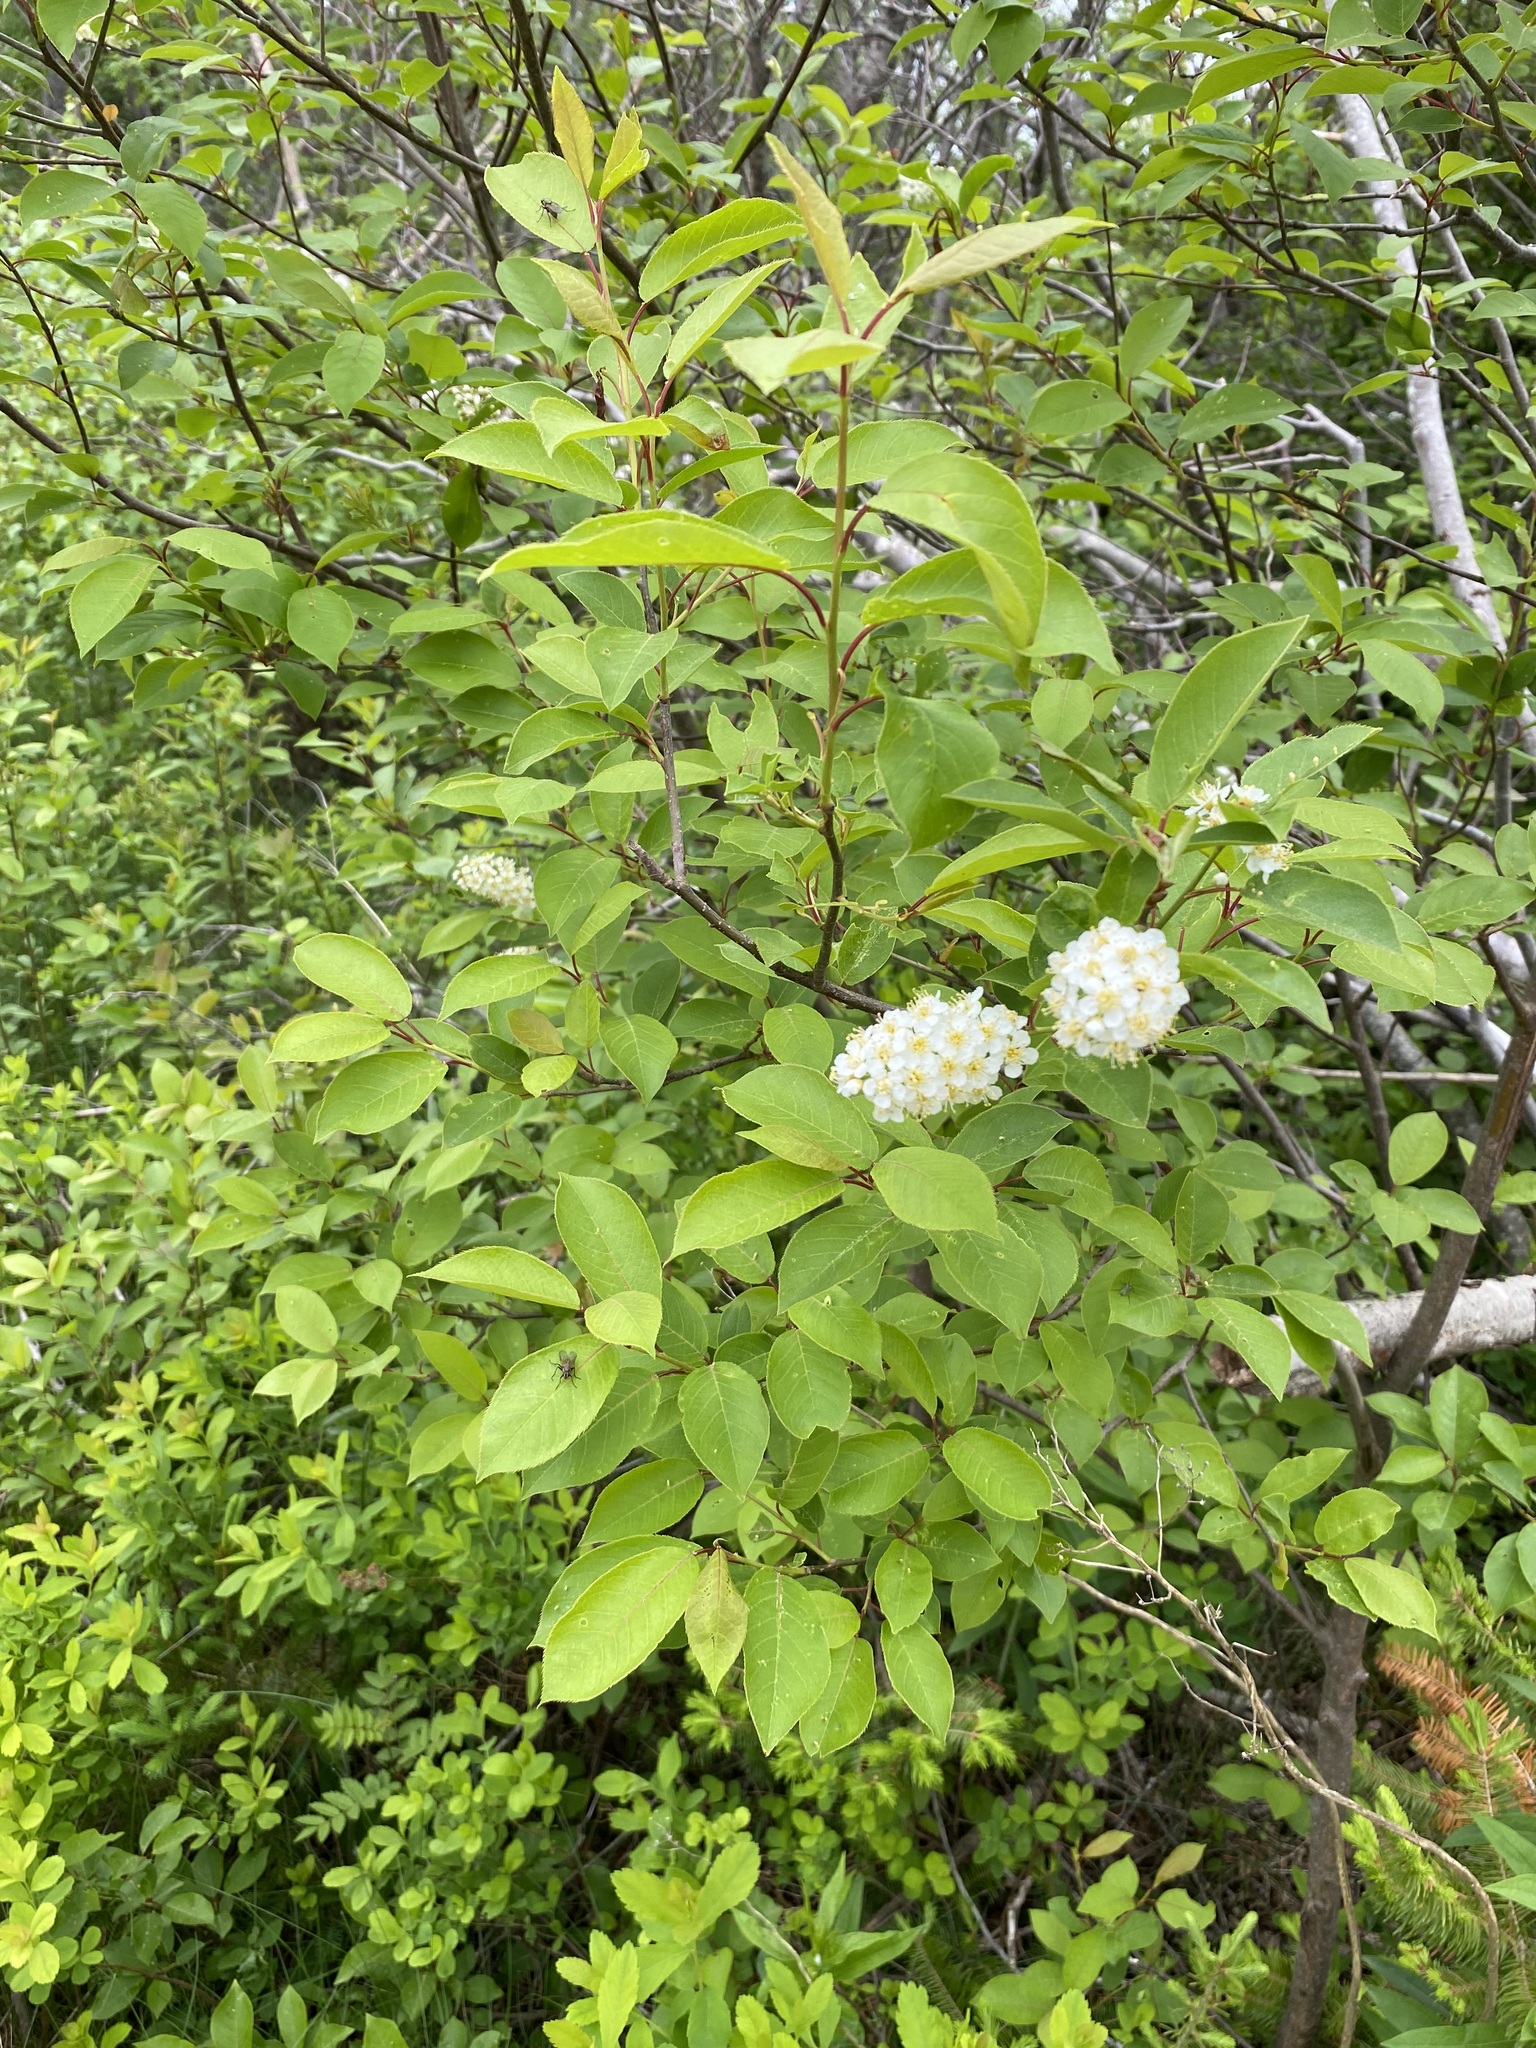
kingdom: Plantae
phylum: Tracheophyta
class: Magnoliopsida
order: Rosales
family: Rosaceae
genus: Prunus
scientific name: Prunus virginiana
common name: Chokecherry
